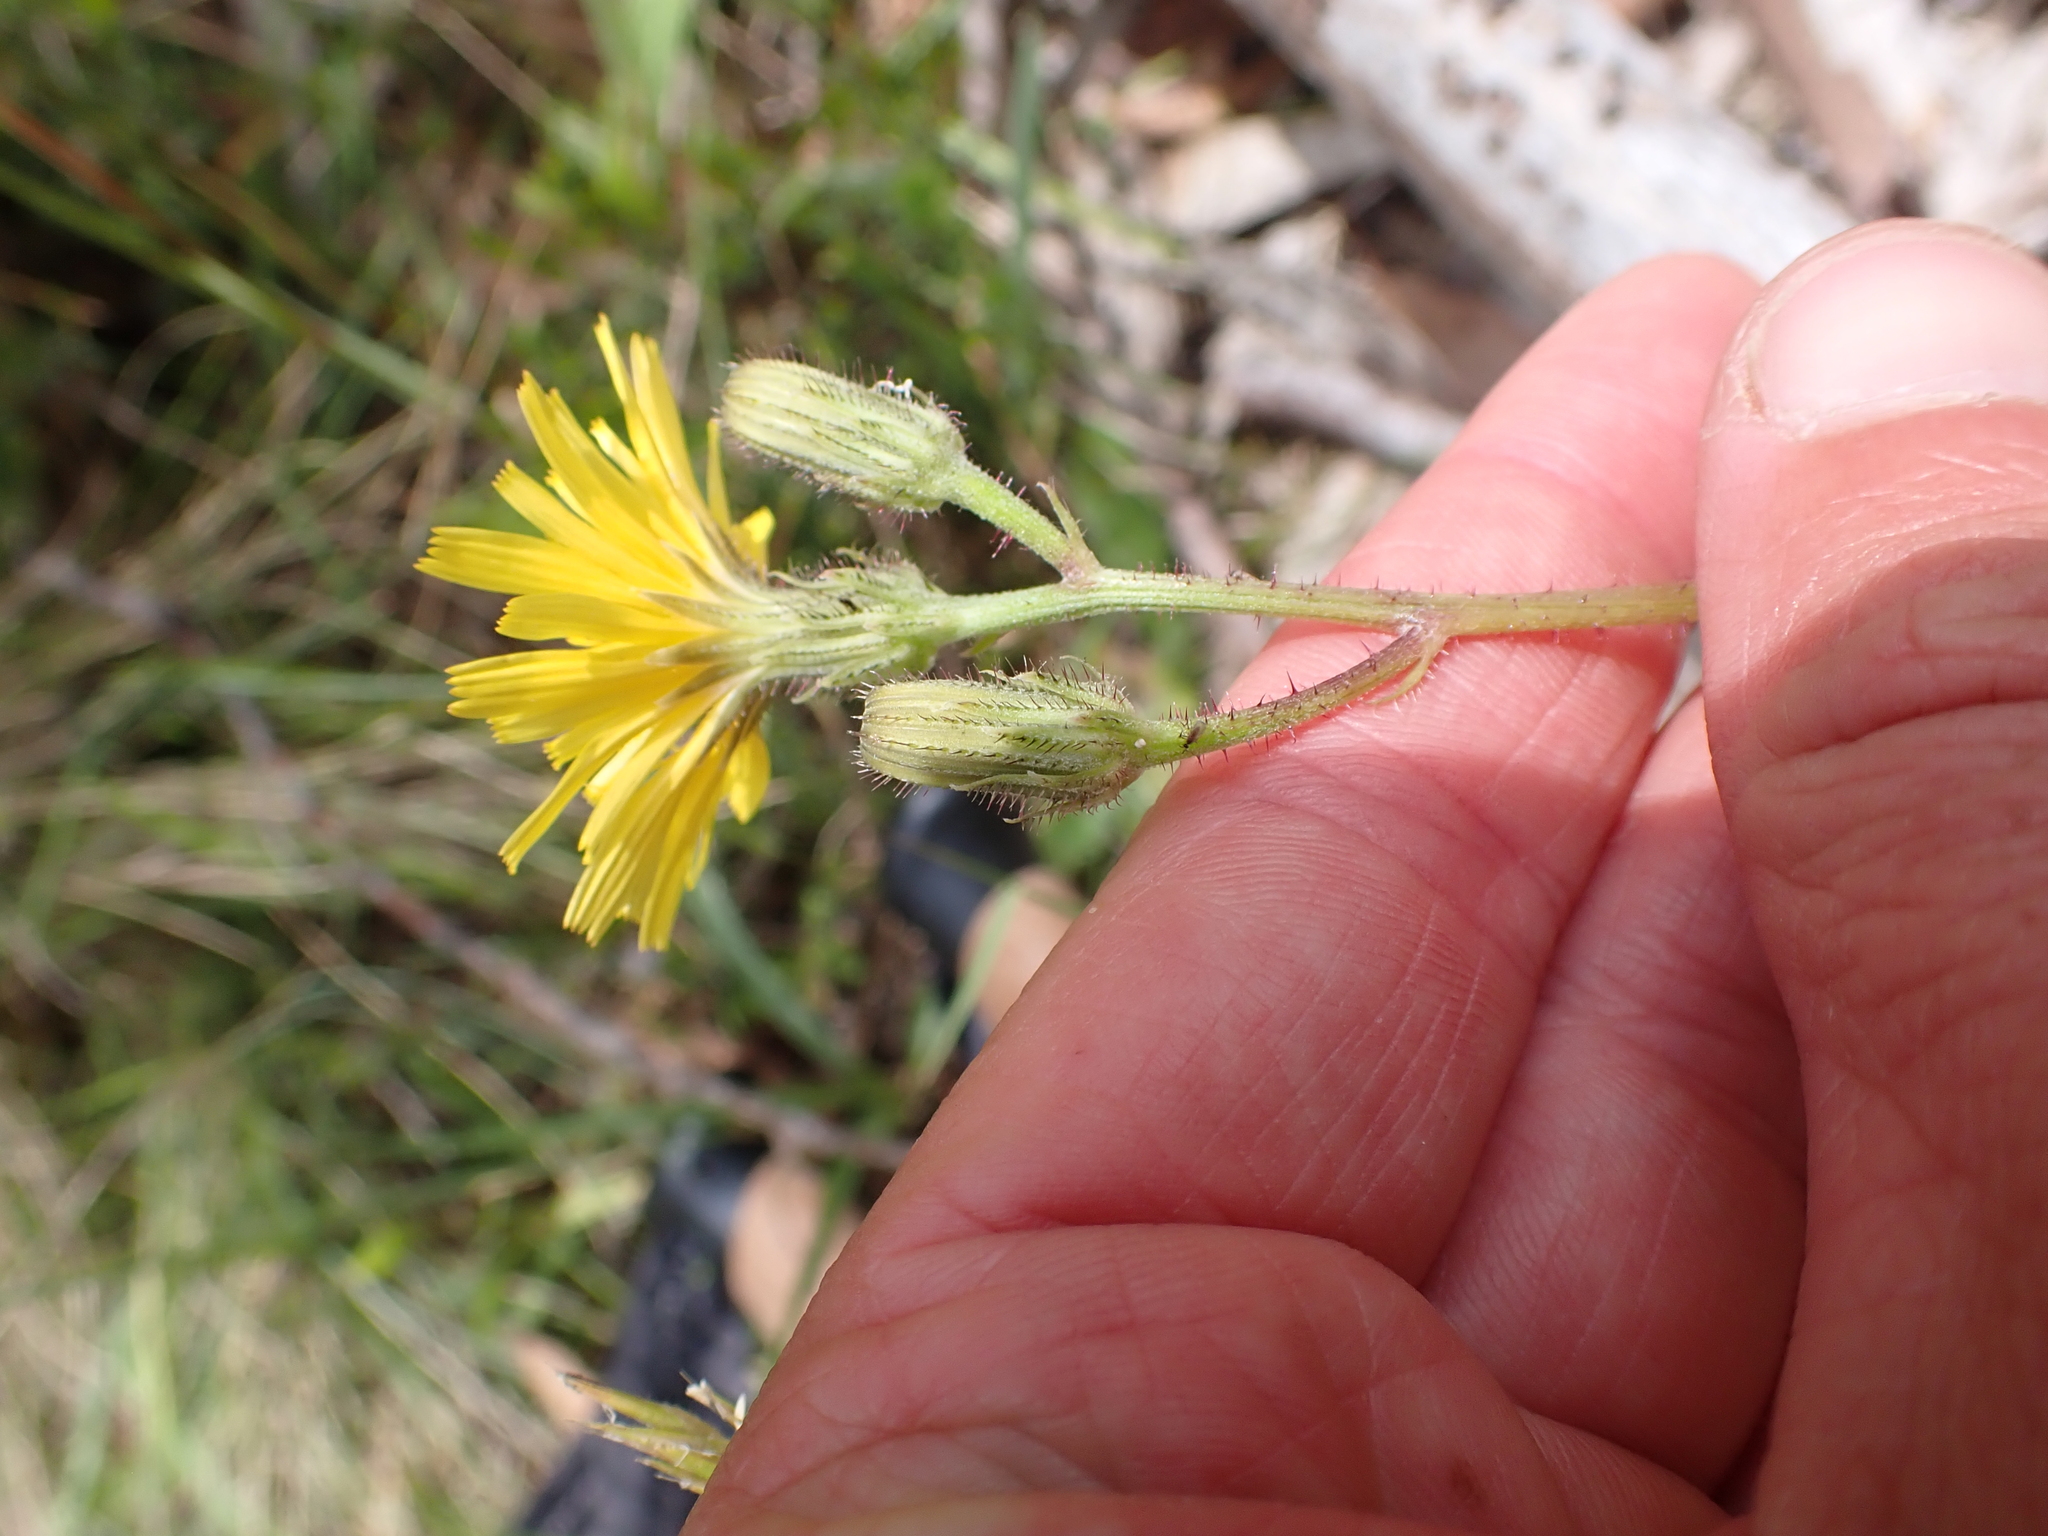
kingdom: Plantae
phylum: Tracheophyta
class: Magnoliopsida
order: Asterales
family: Asteraceae
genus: Picris
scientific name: Picris angustifolia
